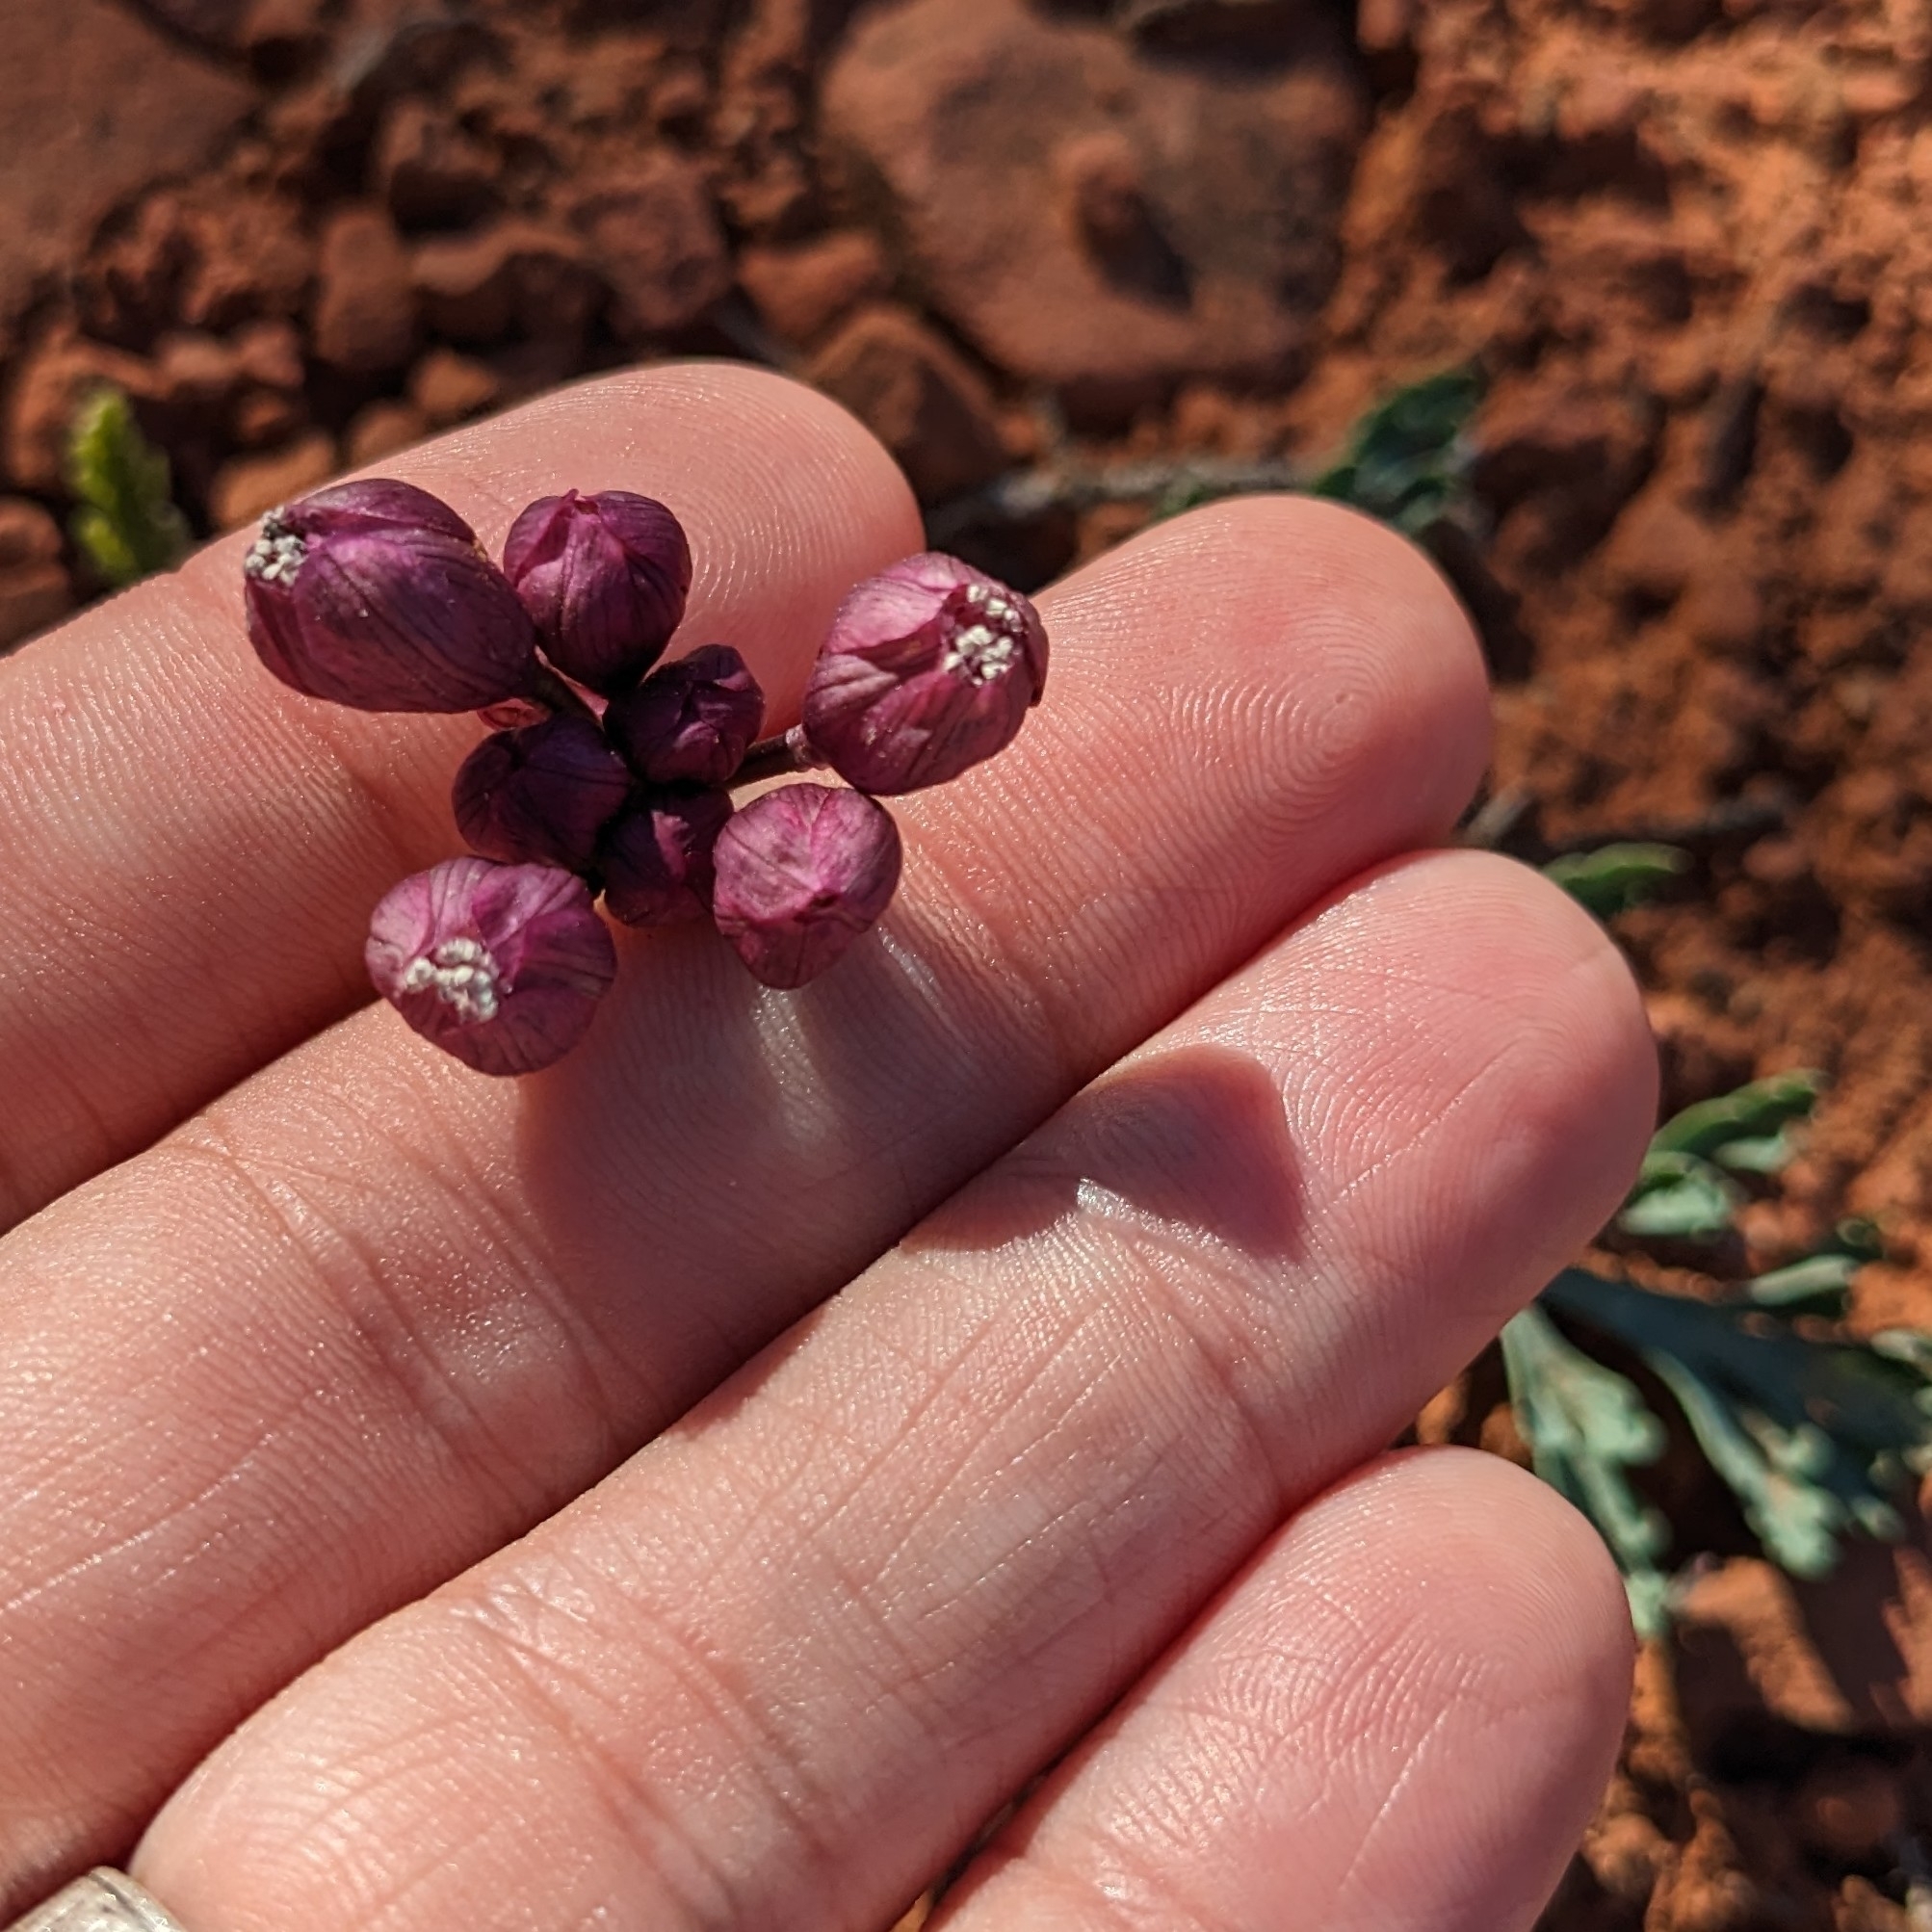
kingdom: Plantae
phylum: Tracheophyta
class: Magnoliopsida
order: Apiales
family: Apiaceae
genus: Vesper
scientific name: Vesper multinervatus
